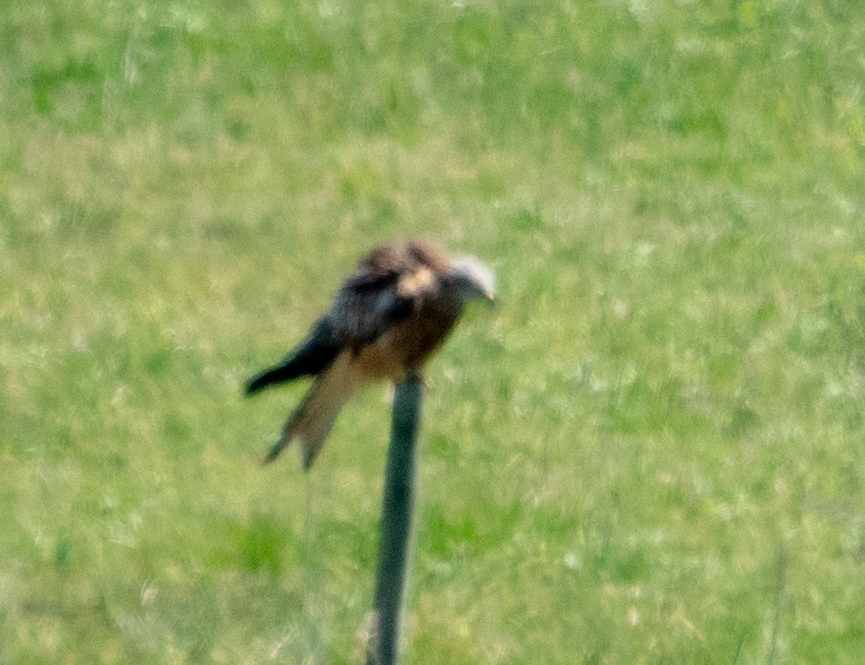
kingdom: Animalia
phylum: Chordata
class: Aves
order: Accipitriformes
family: Accipitridae
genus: Milvus
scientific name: Milvus milvus
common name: Red kite
